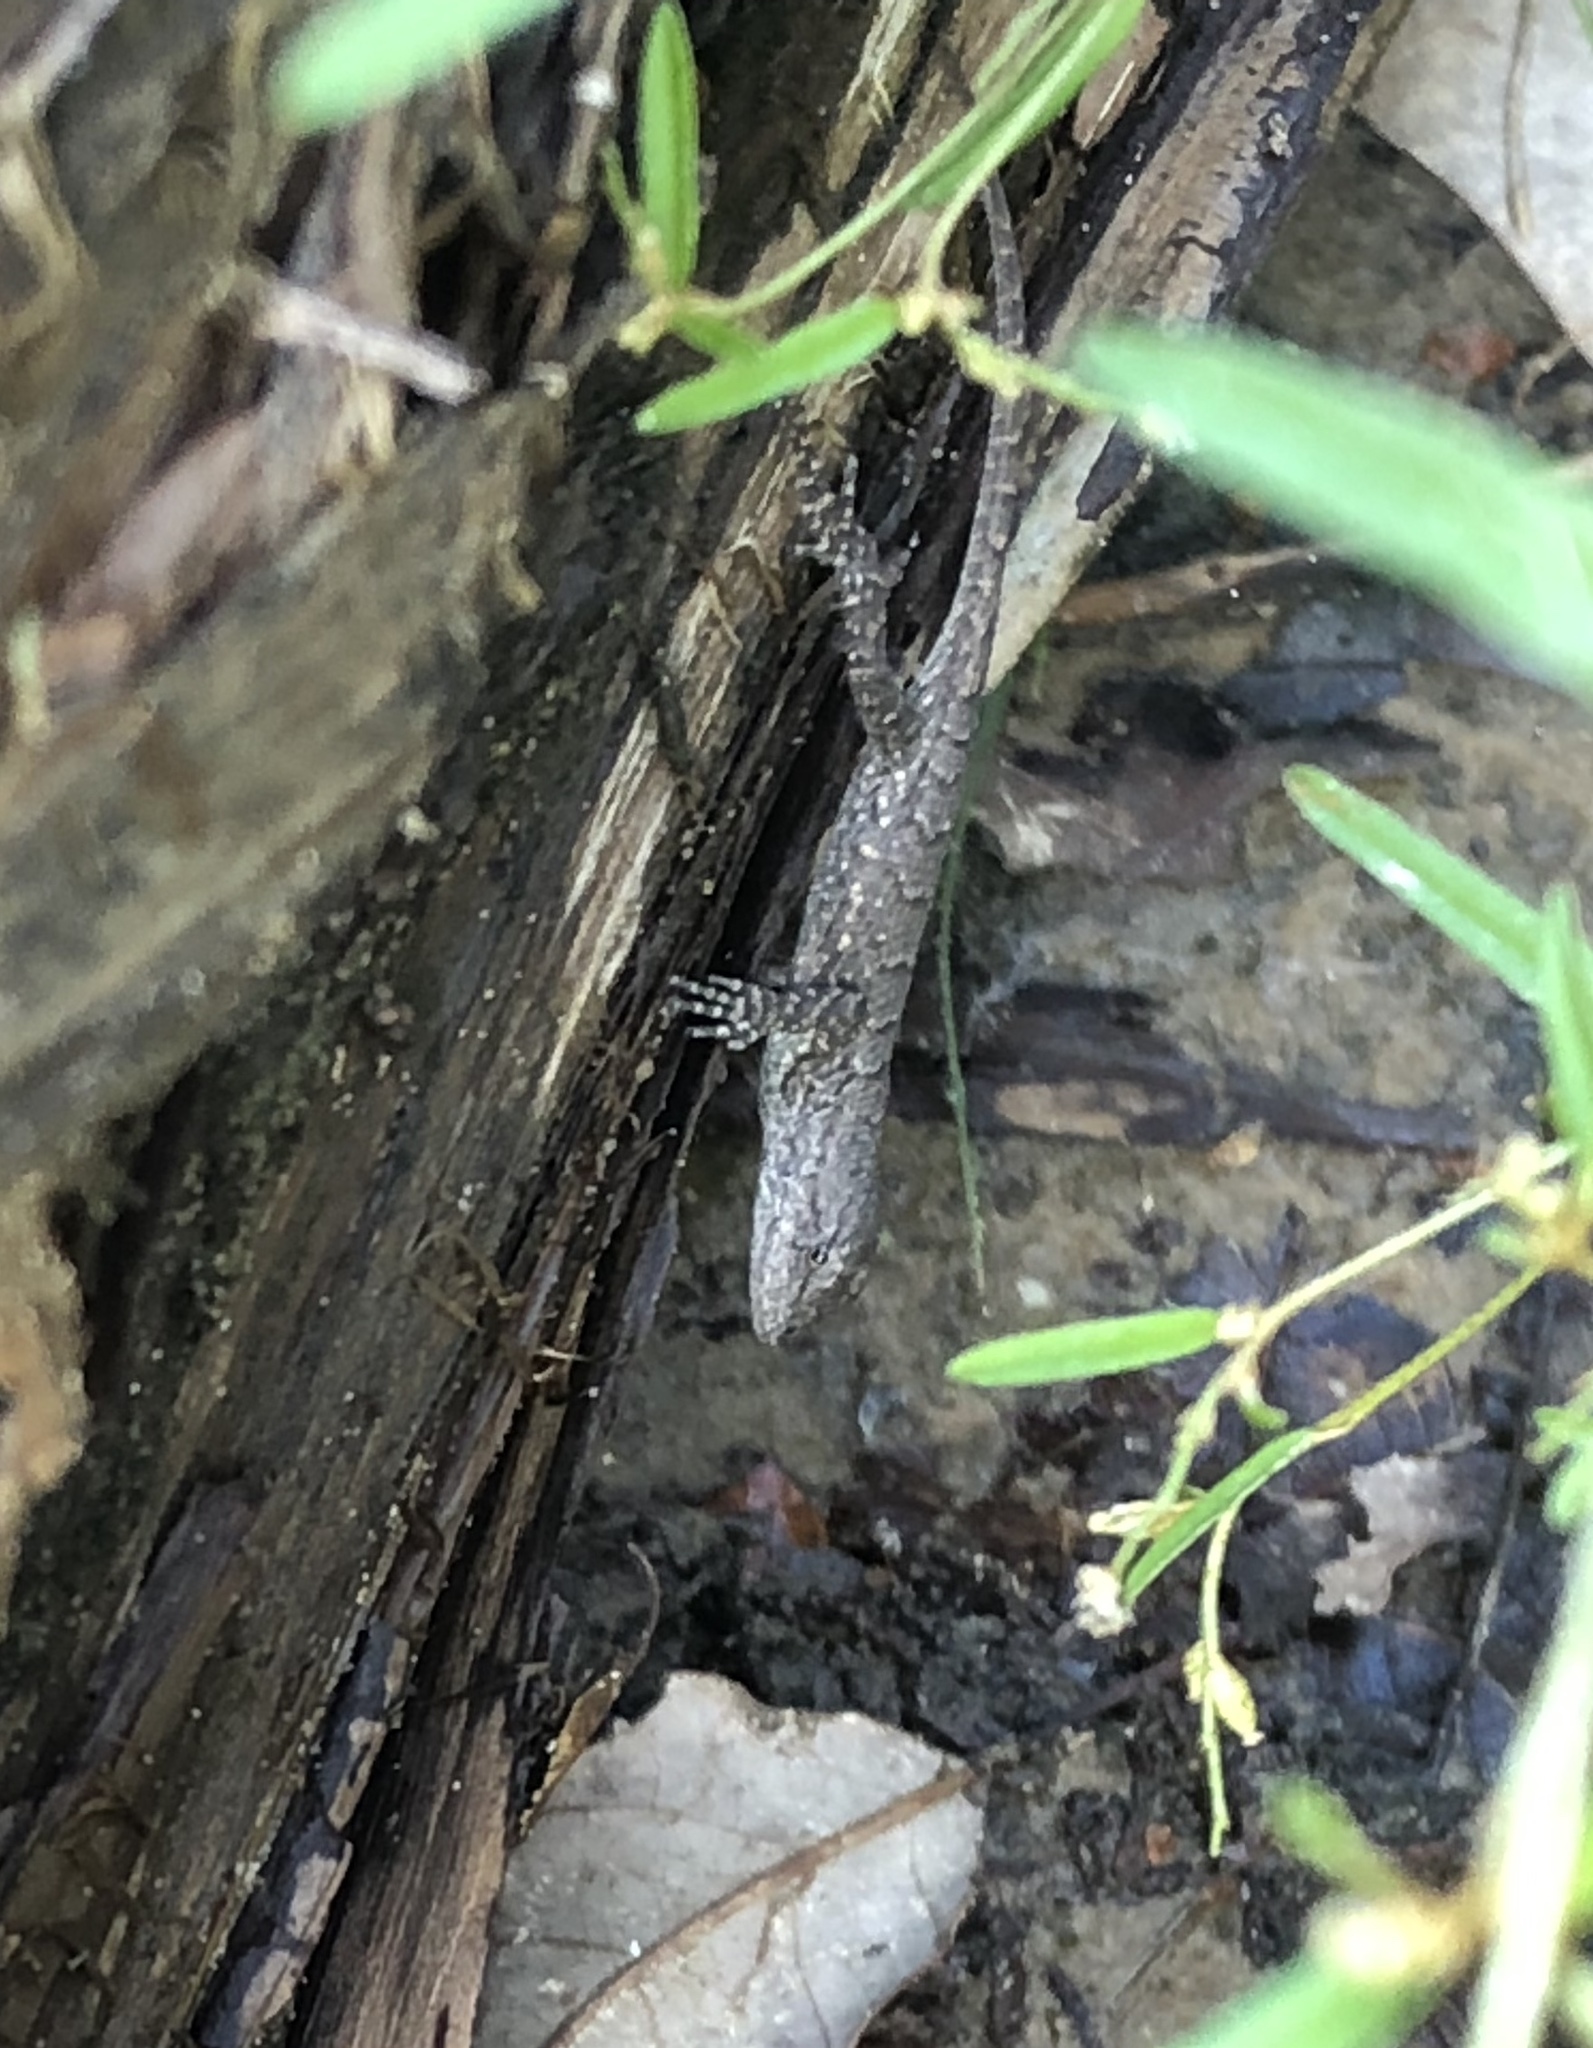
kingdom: Animalia
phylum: Chordata
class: Squamata
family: Phrynosomatidae
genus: Sceloporus
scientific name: Sceloporus consobrinus
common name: Southern prairie lizard
